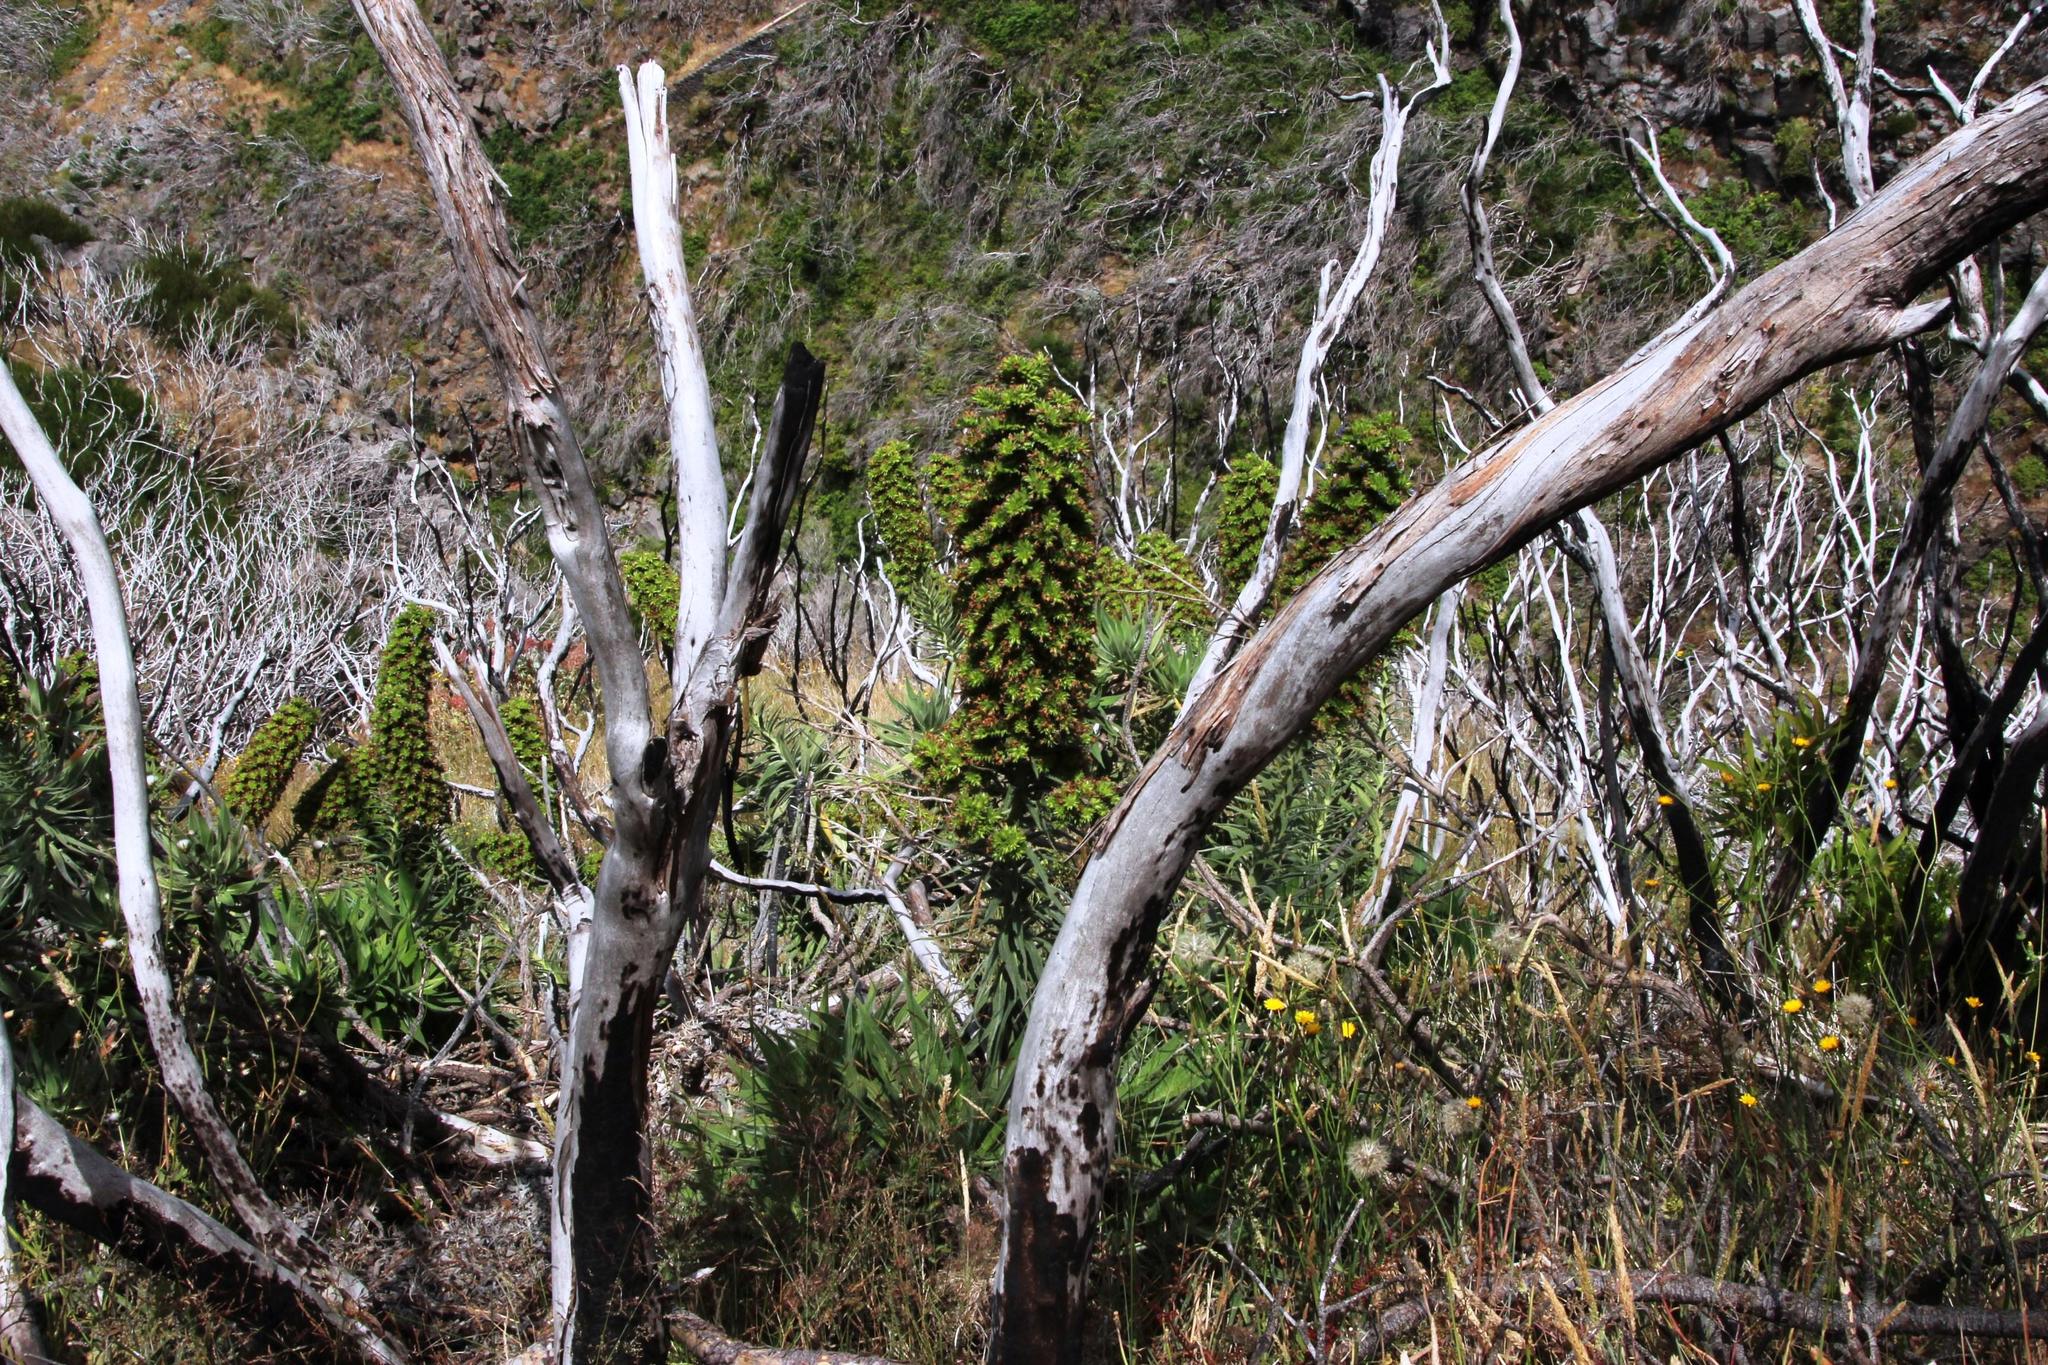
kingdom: Plantae
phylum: Tracheophyta
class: Magnoliopsida
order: Boraginales
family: Boraginaceae
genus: Echium
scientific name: Echium candicans
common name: Pride of madeira
